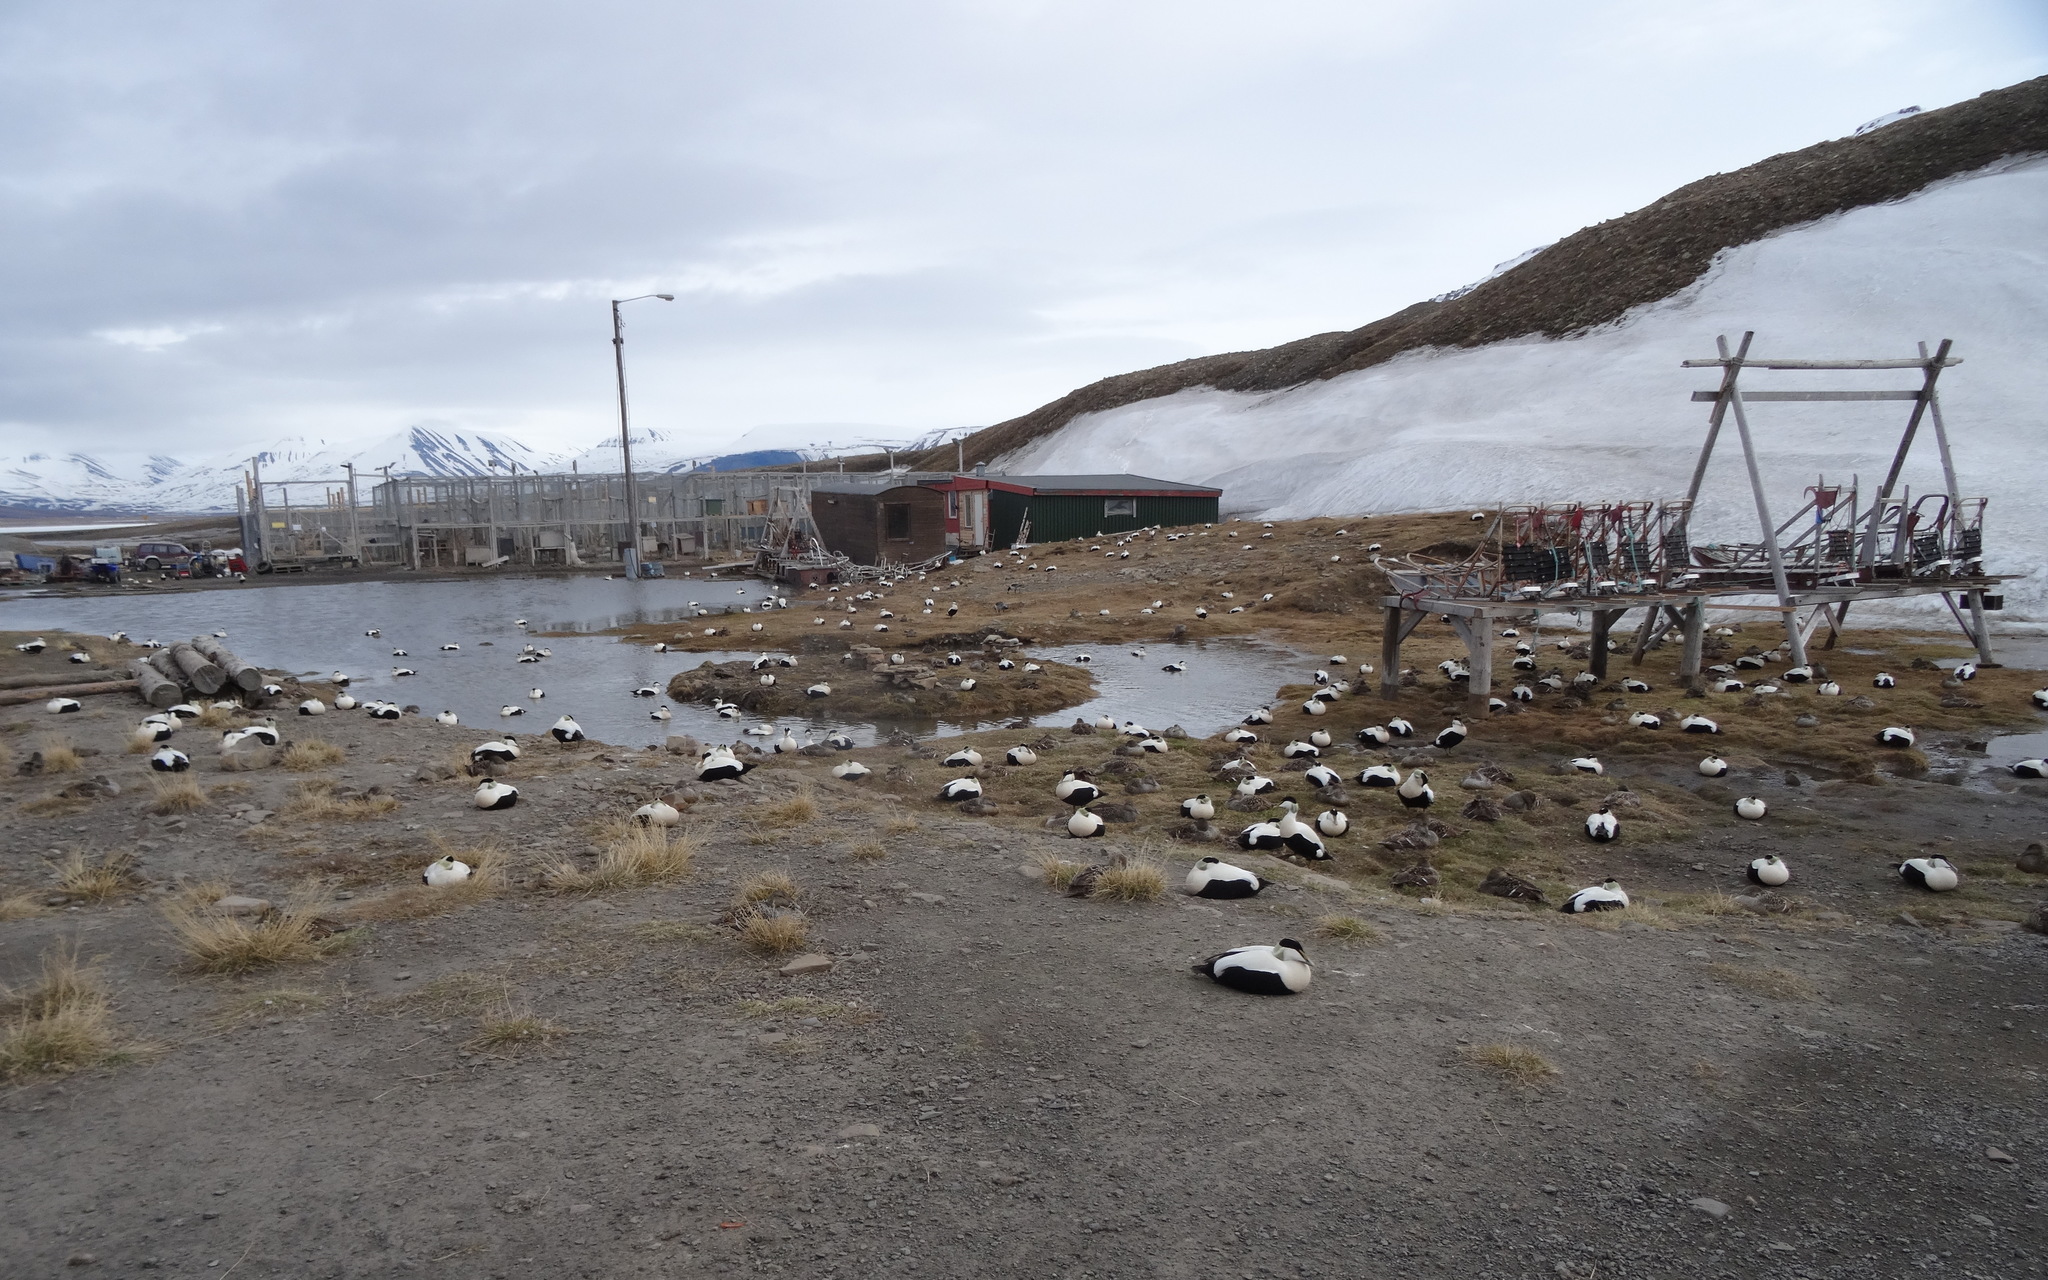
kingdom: Animalia
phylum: Chordata
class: Aves
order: Anseriformes
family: Anatidae
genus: Somateria
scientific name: Somateria mollissima
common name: Common eider
